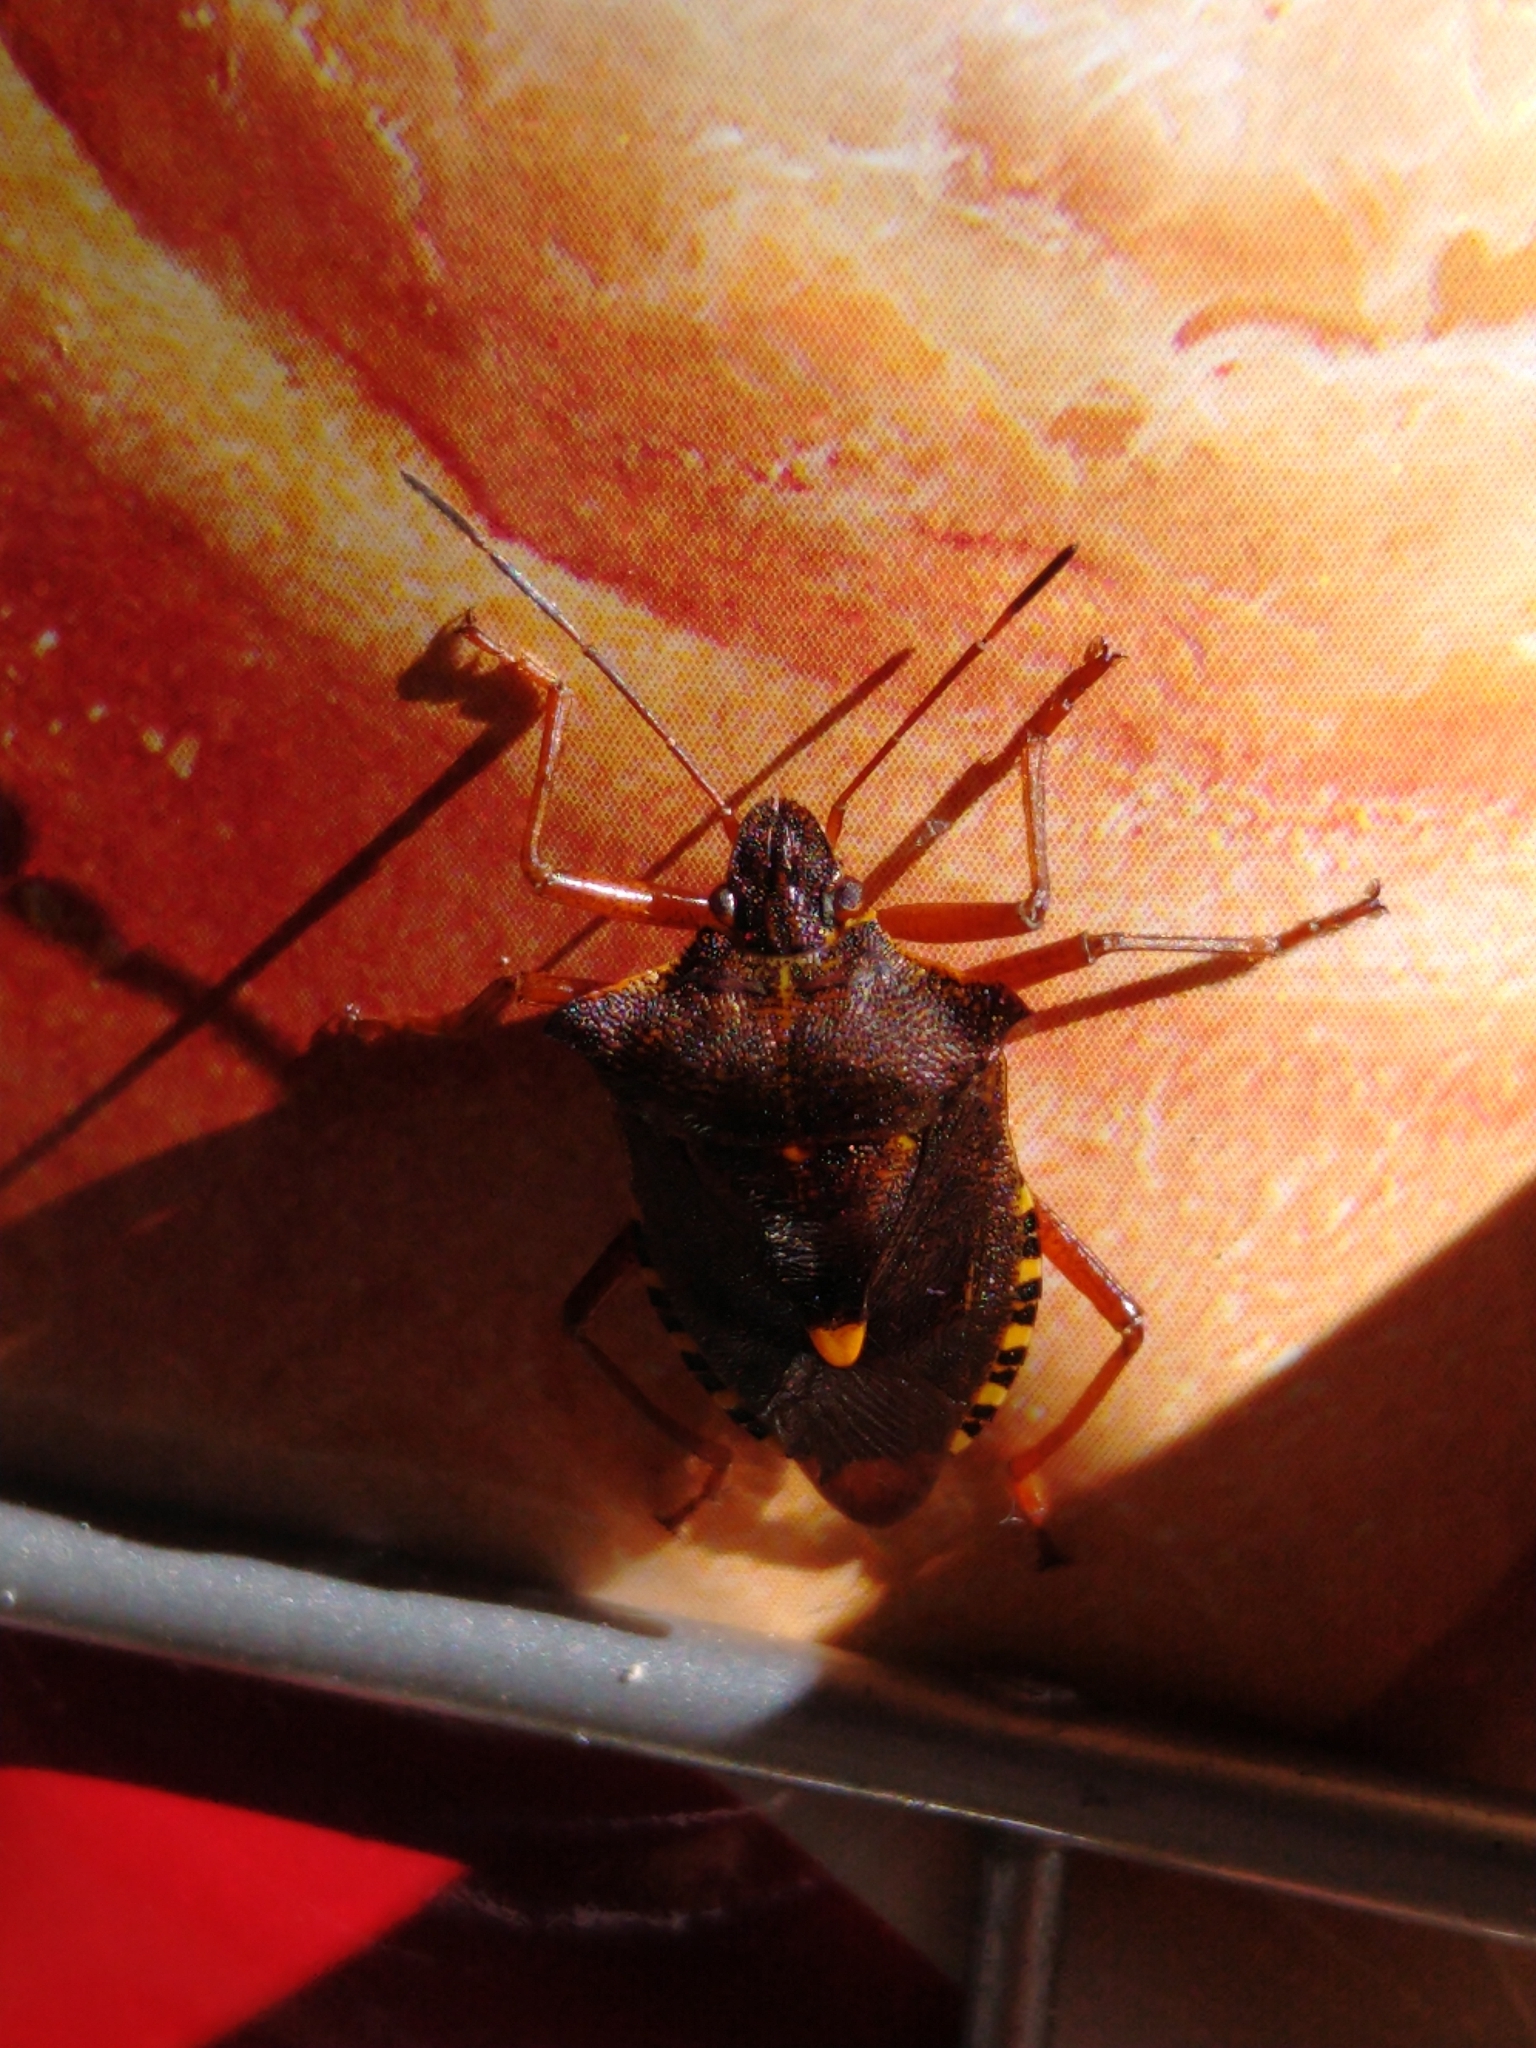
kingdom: Animalia
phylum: Arthropoda
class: Insecta
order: Hemiptera
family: Pentatomidae
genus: Pentatoma
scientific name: Pentatoma rufipes
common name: Forest bug
